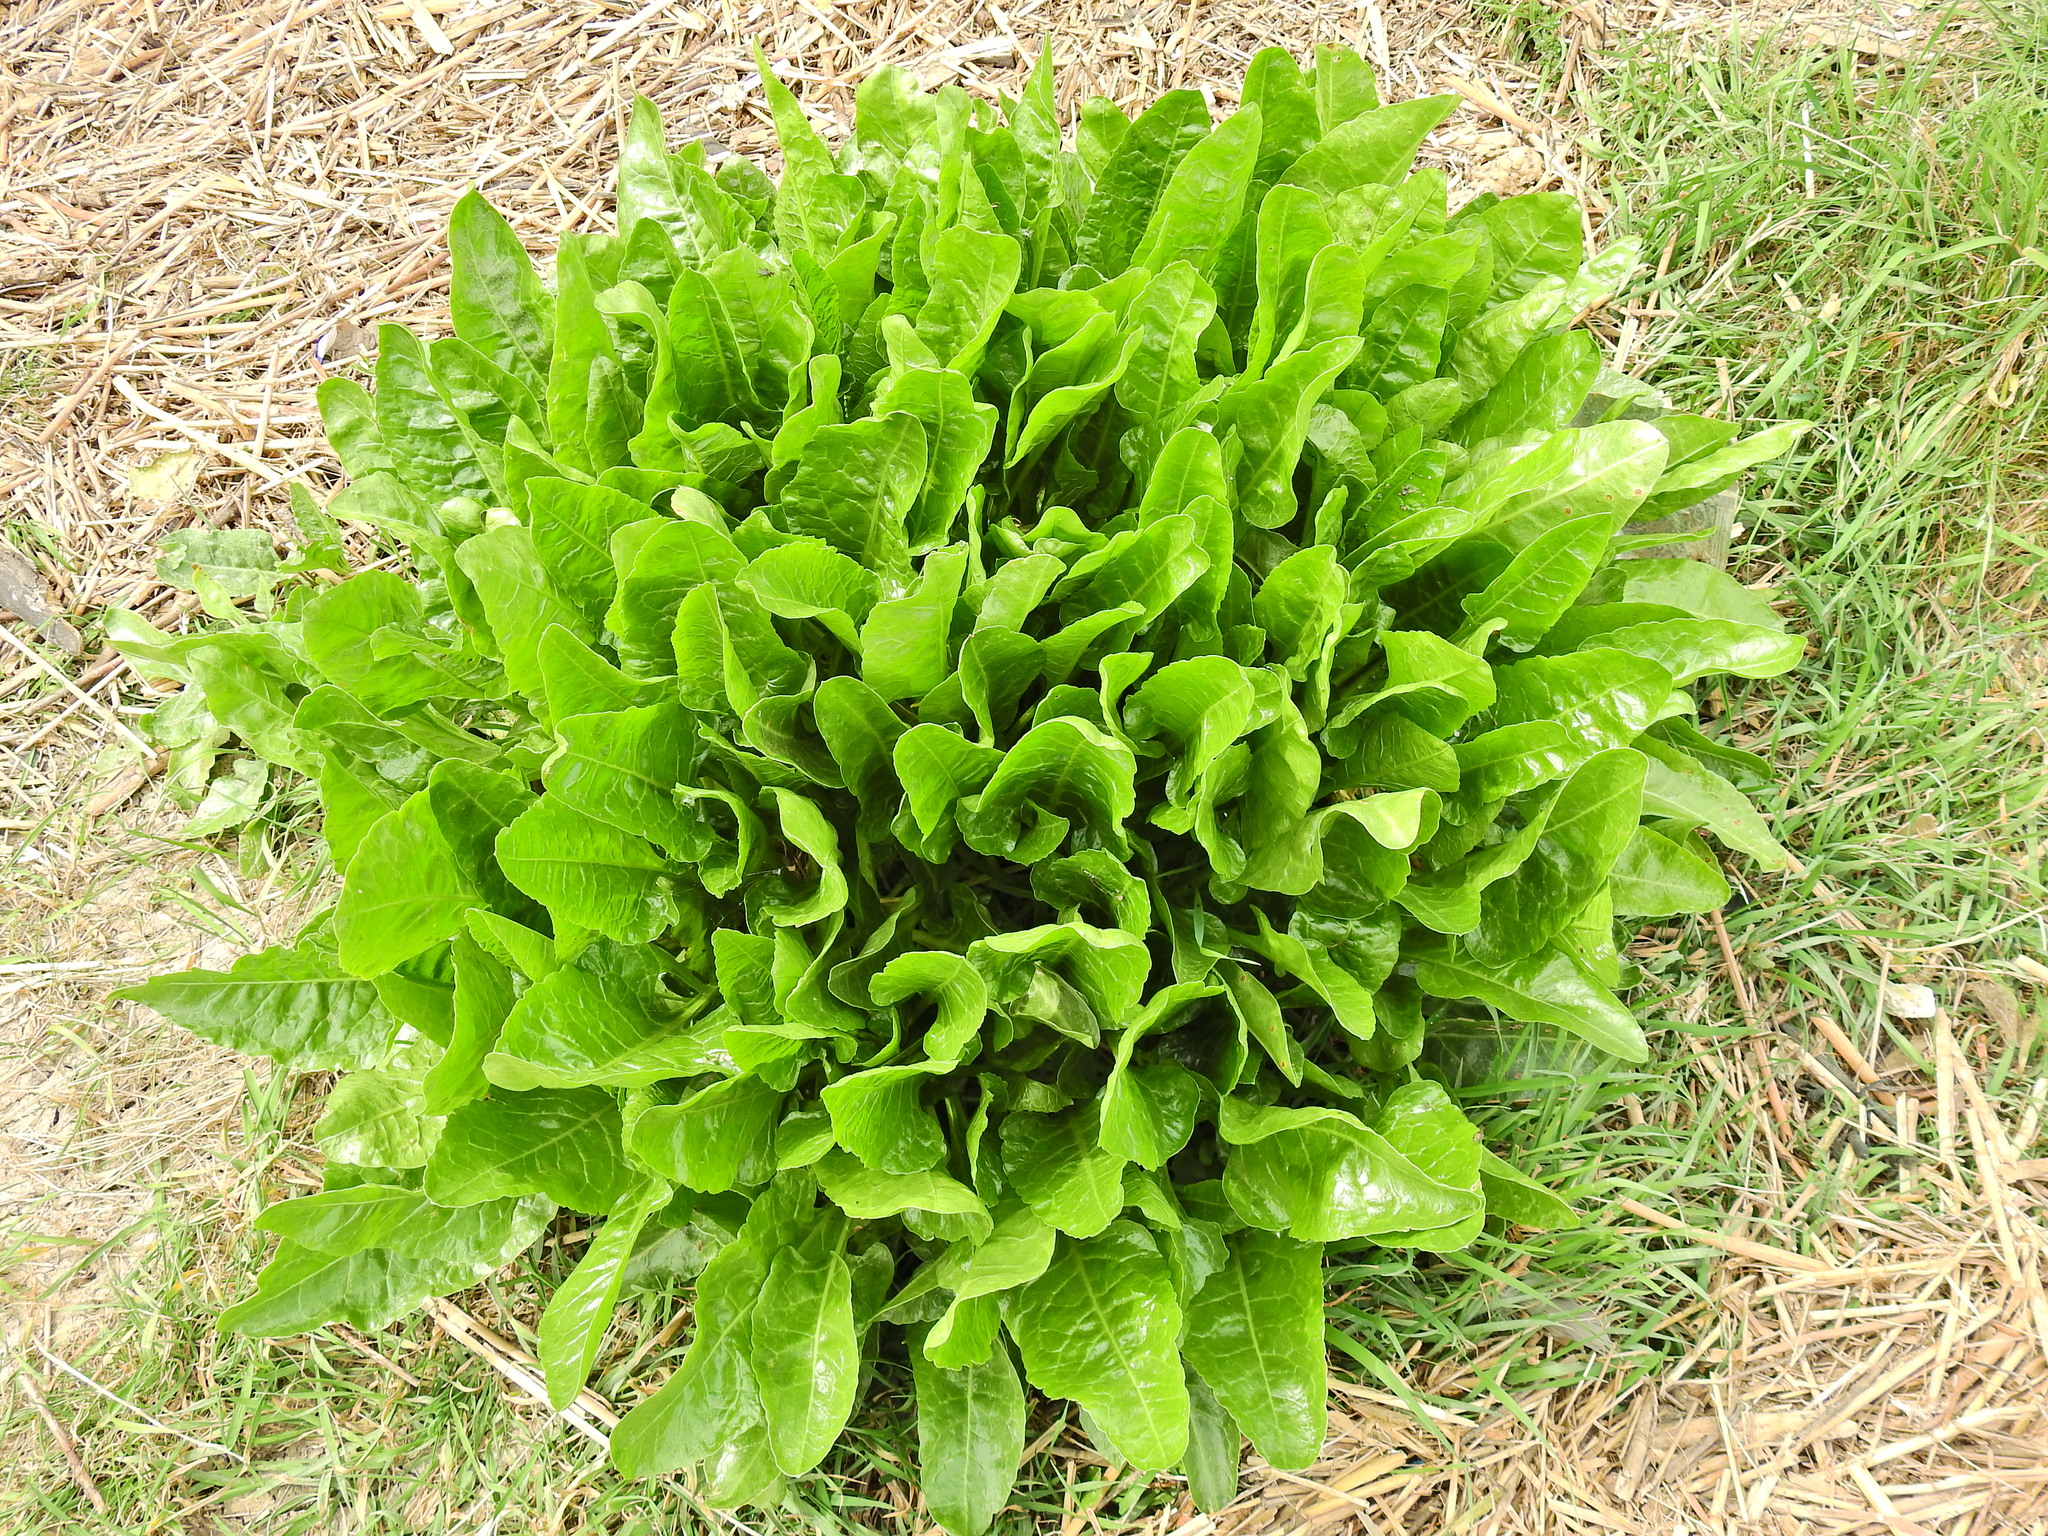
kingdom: Plantae
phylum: Tracheophyta
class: Magnoliopsida
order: Caryophyllales
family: Amaranthaceae
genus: Beta
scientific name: Beta vulgaris
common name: Beet
